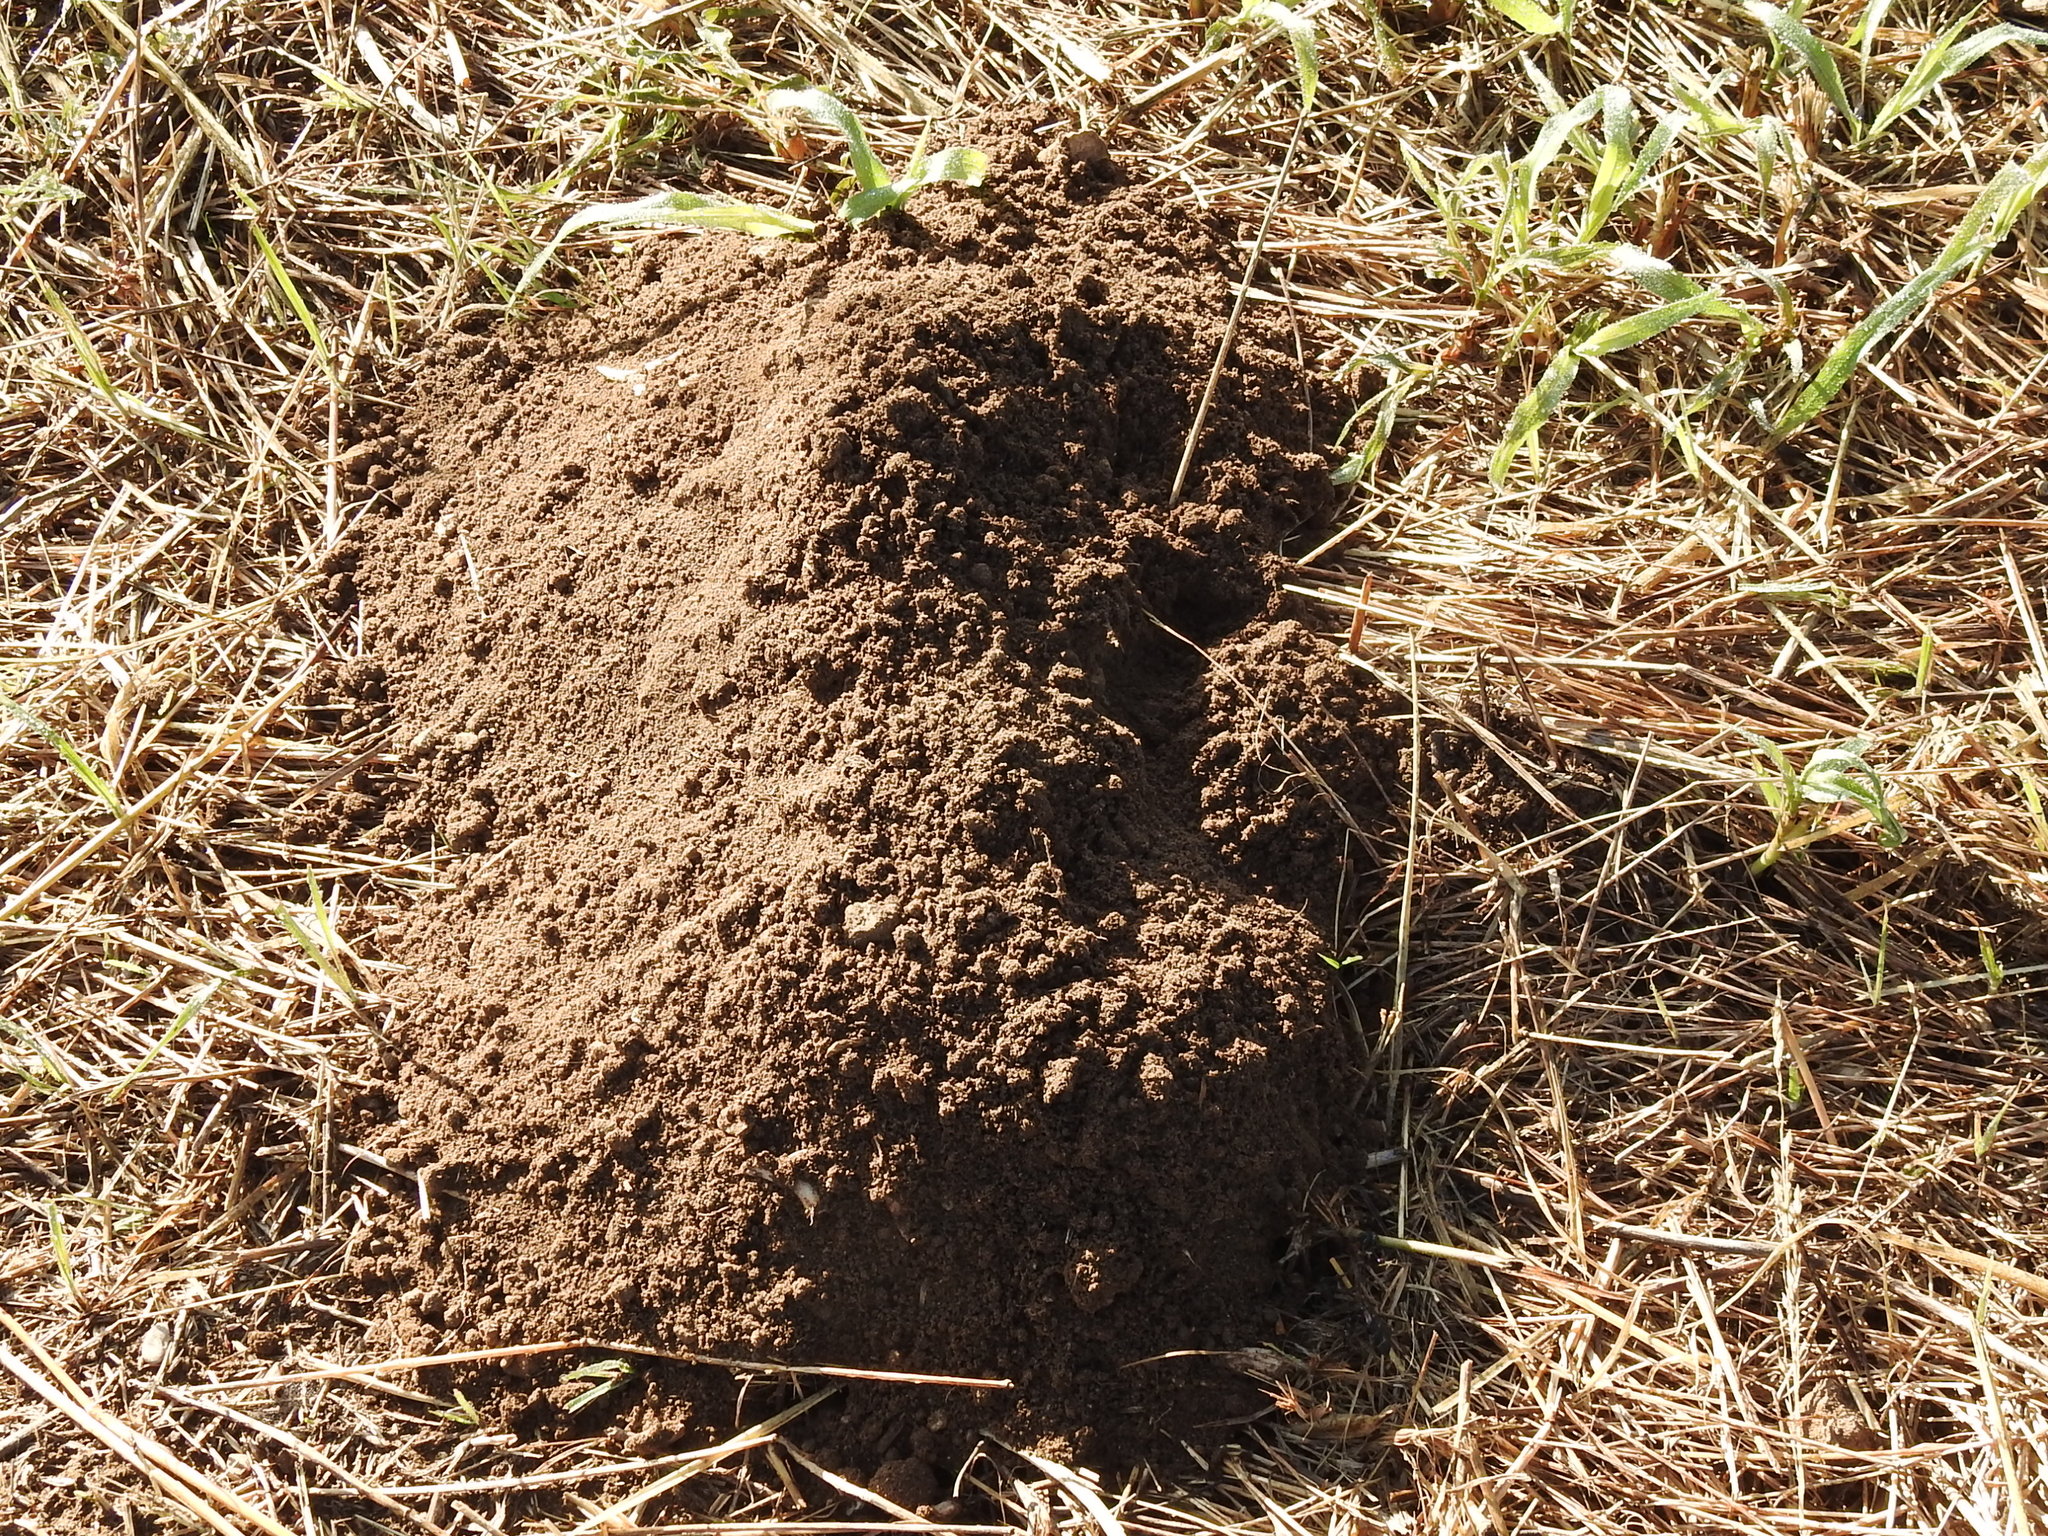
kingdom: Animalia
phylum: Chordata
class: Mammalia
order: Rodentia
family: Geomyidae
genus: Geomys
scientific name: Geomys bursarius
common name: Plains pocket gopher
